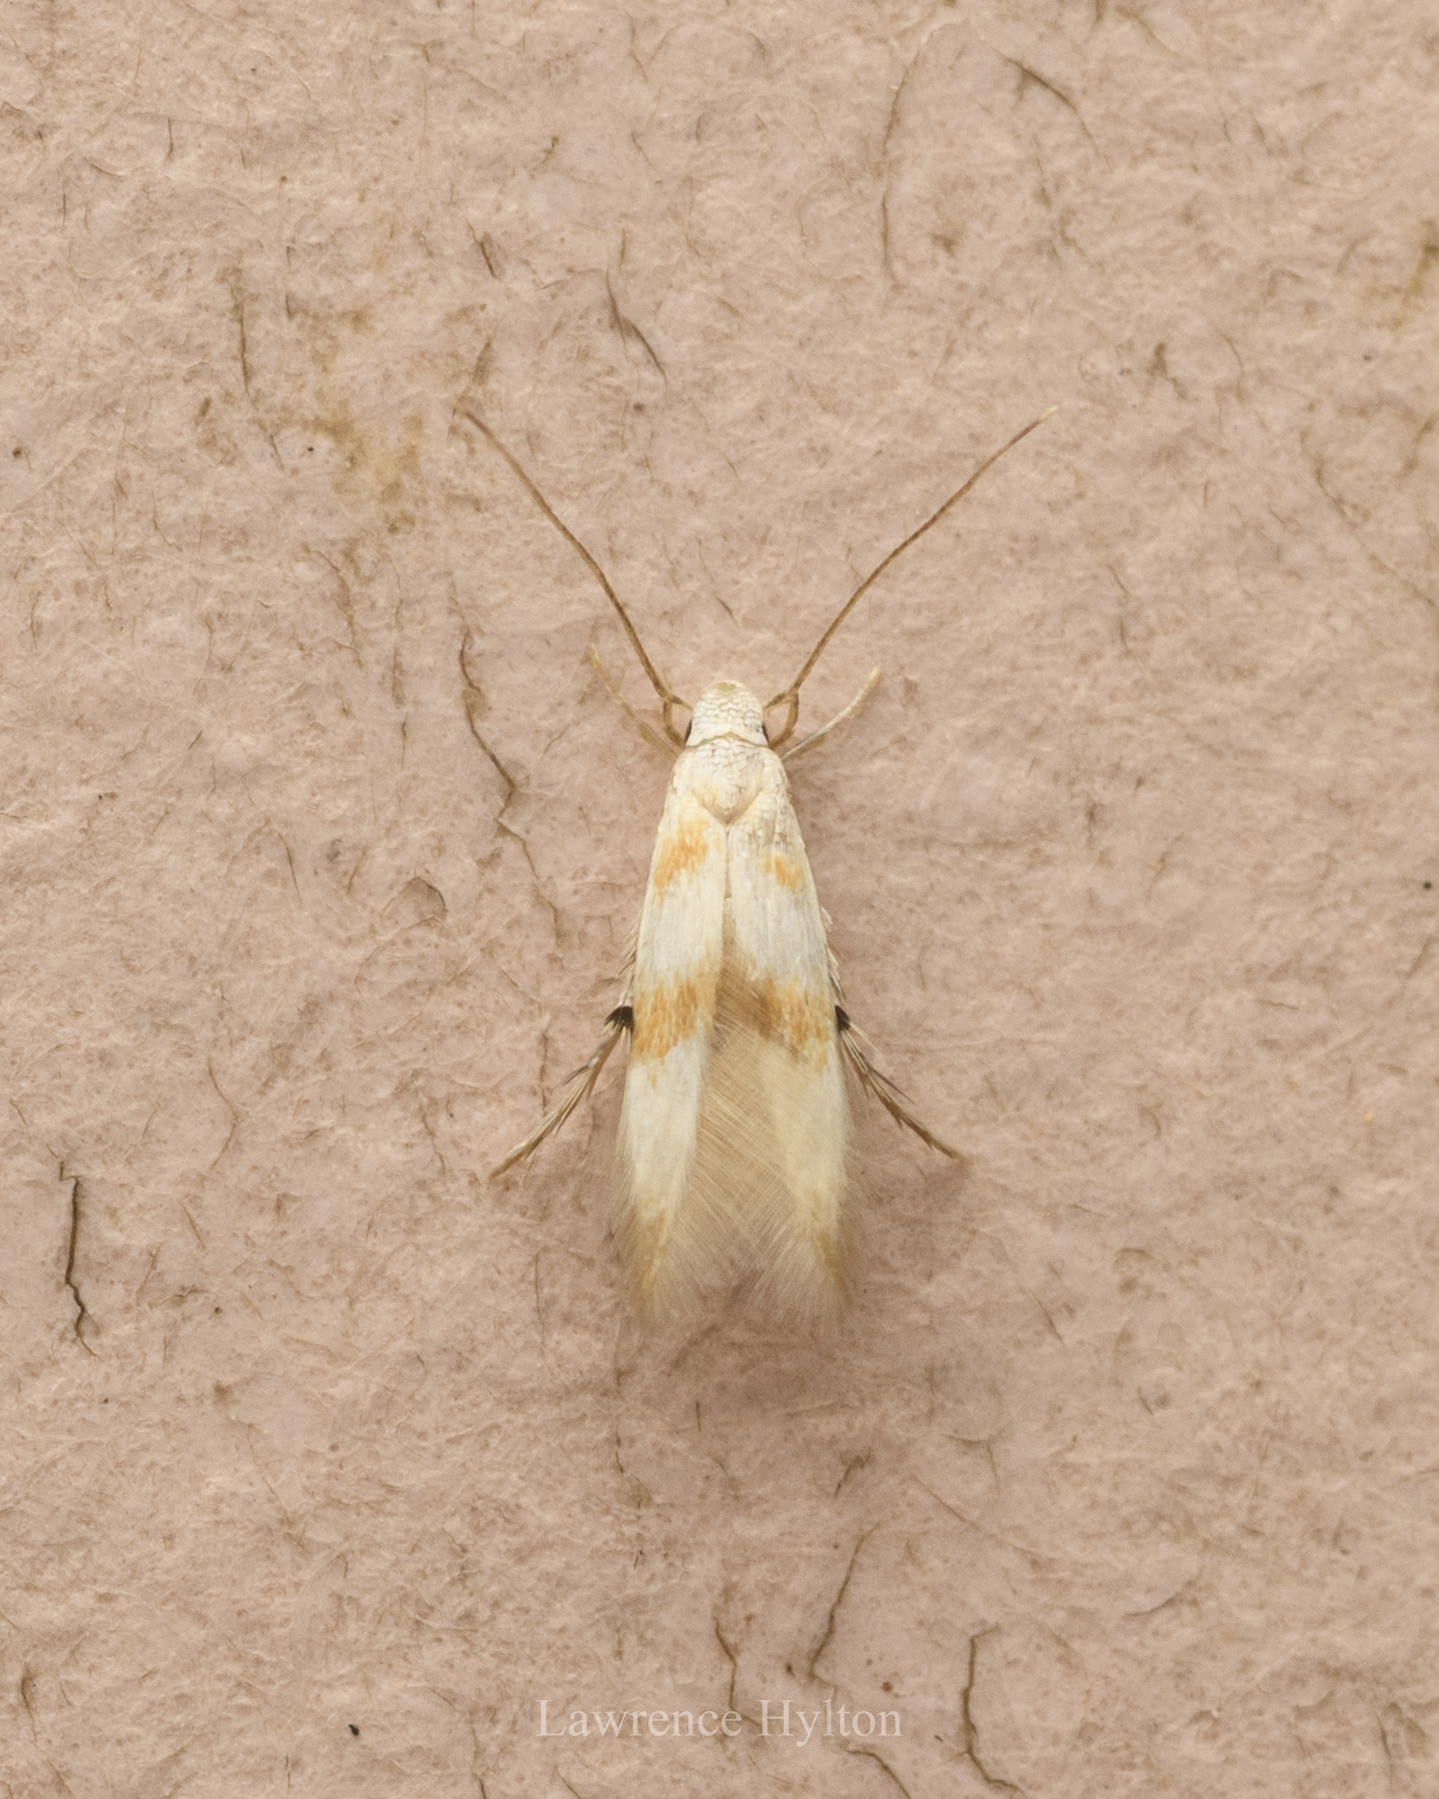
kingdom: Animalia
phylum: Arthropoda
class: Insecta
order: Lepidoptera
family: Stathmopodidae
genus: Pachyrhabda
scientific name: Pachyrhabda epichlora
